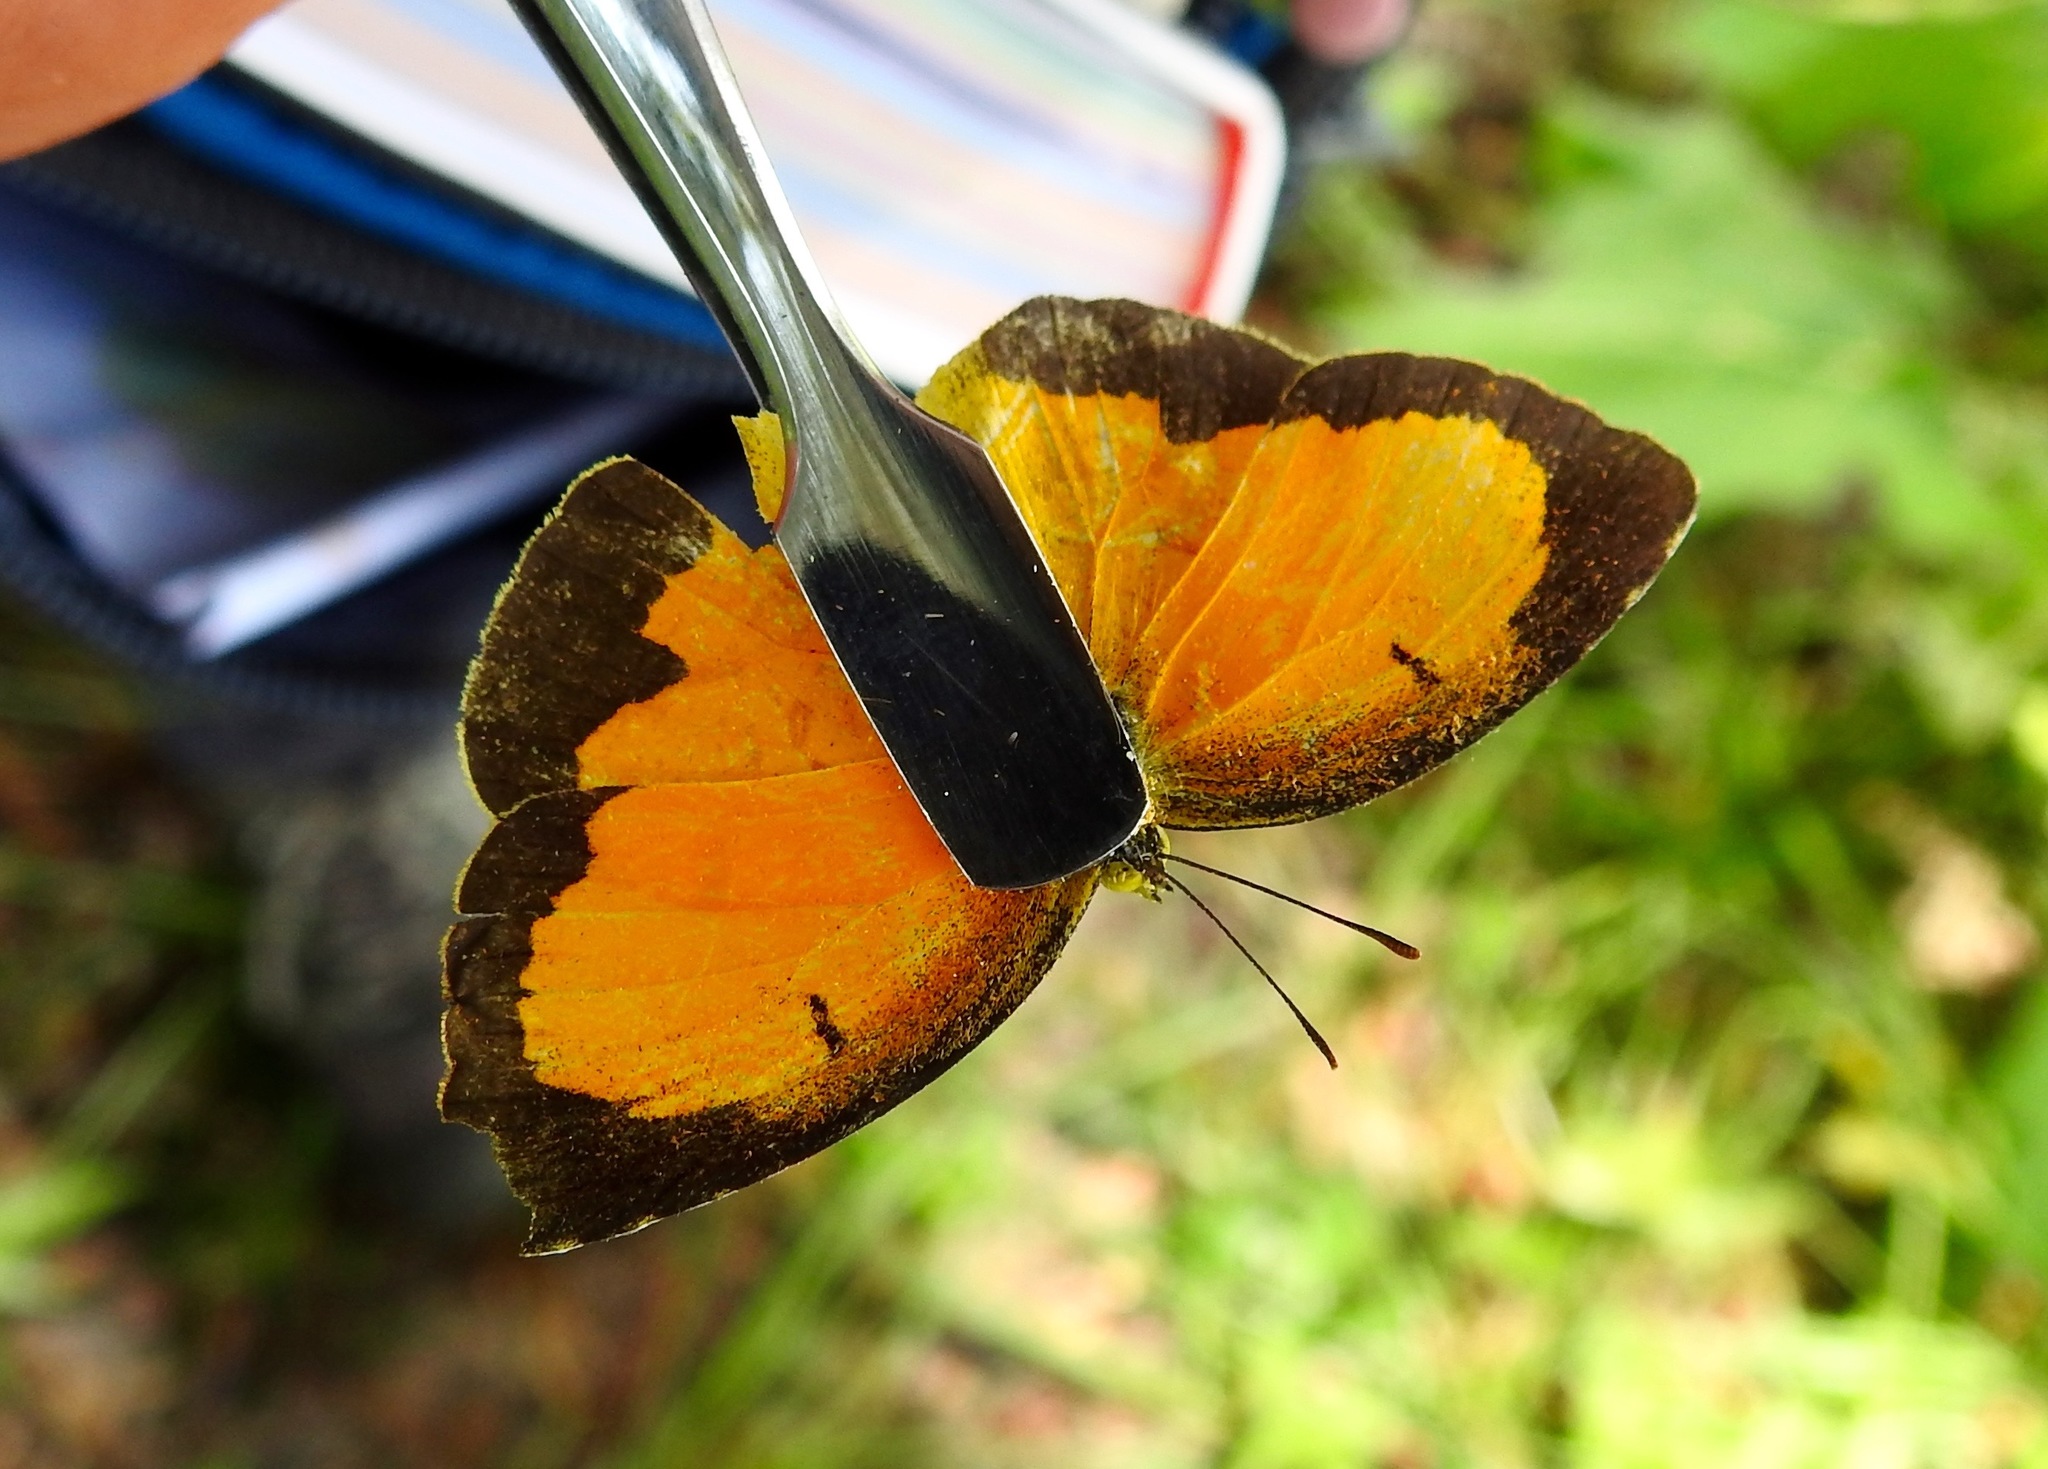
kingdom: Animalia
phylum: Arthropoda
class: Insecta
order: Lepidoptera
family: Pieridae
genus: Abaeis
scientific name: Abaeis nicippe
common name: Sleepy orange
